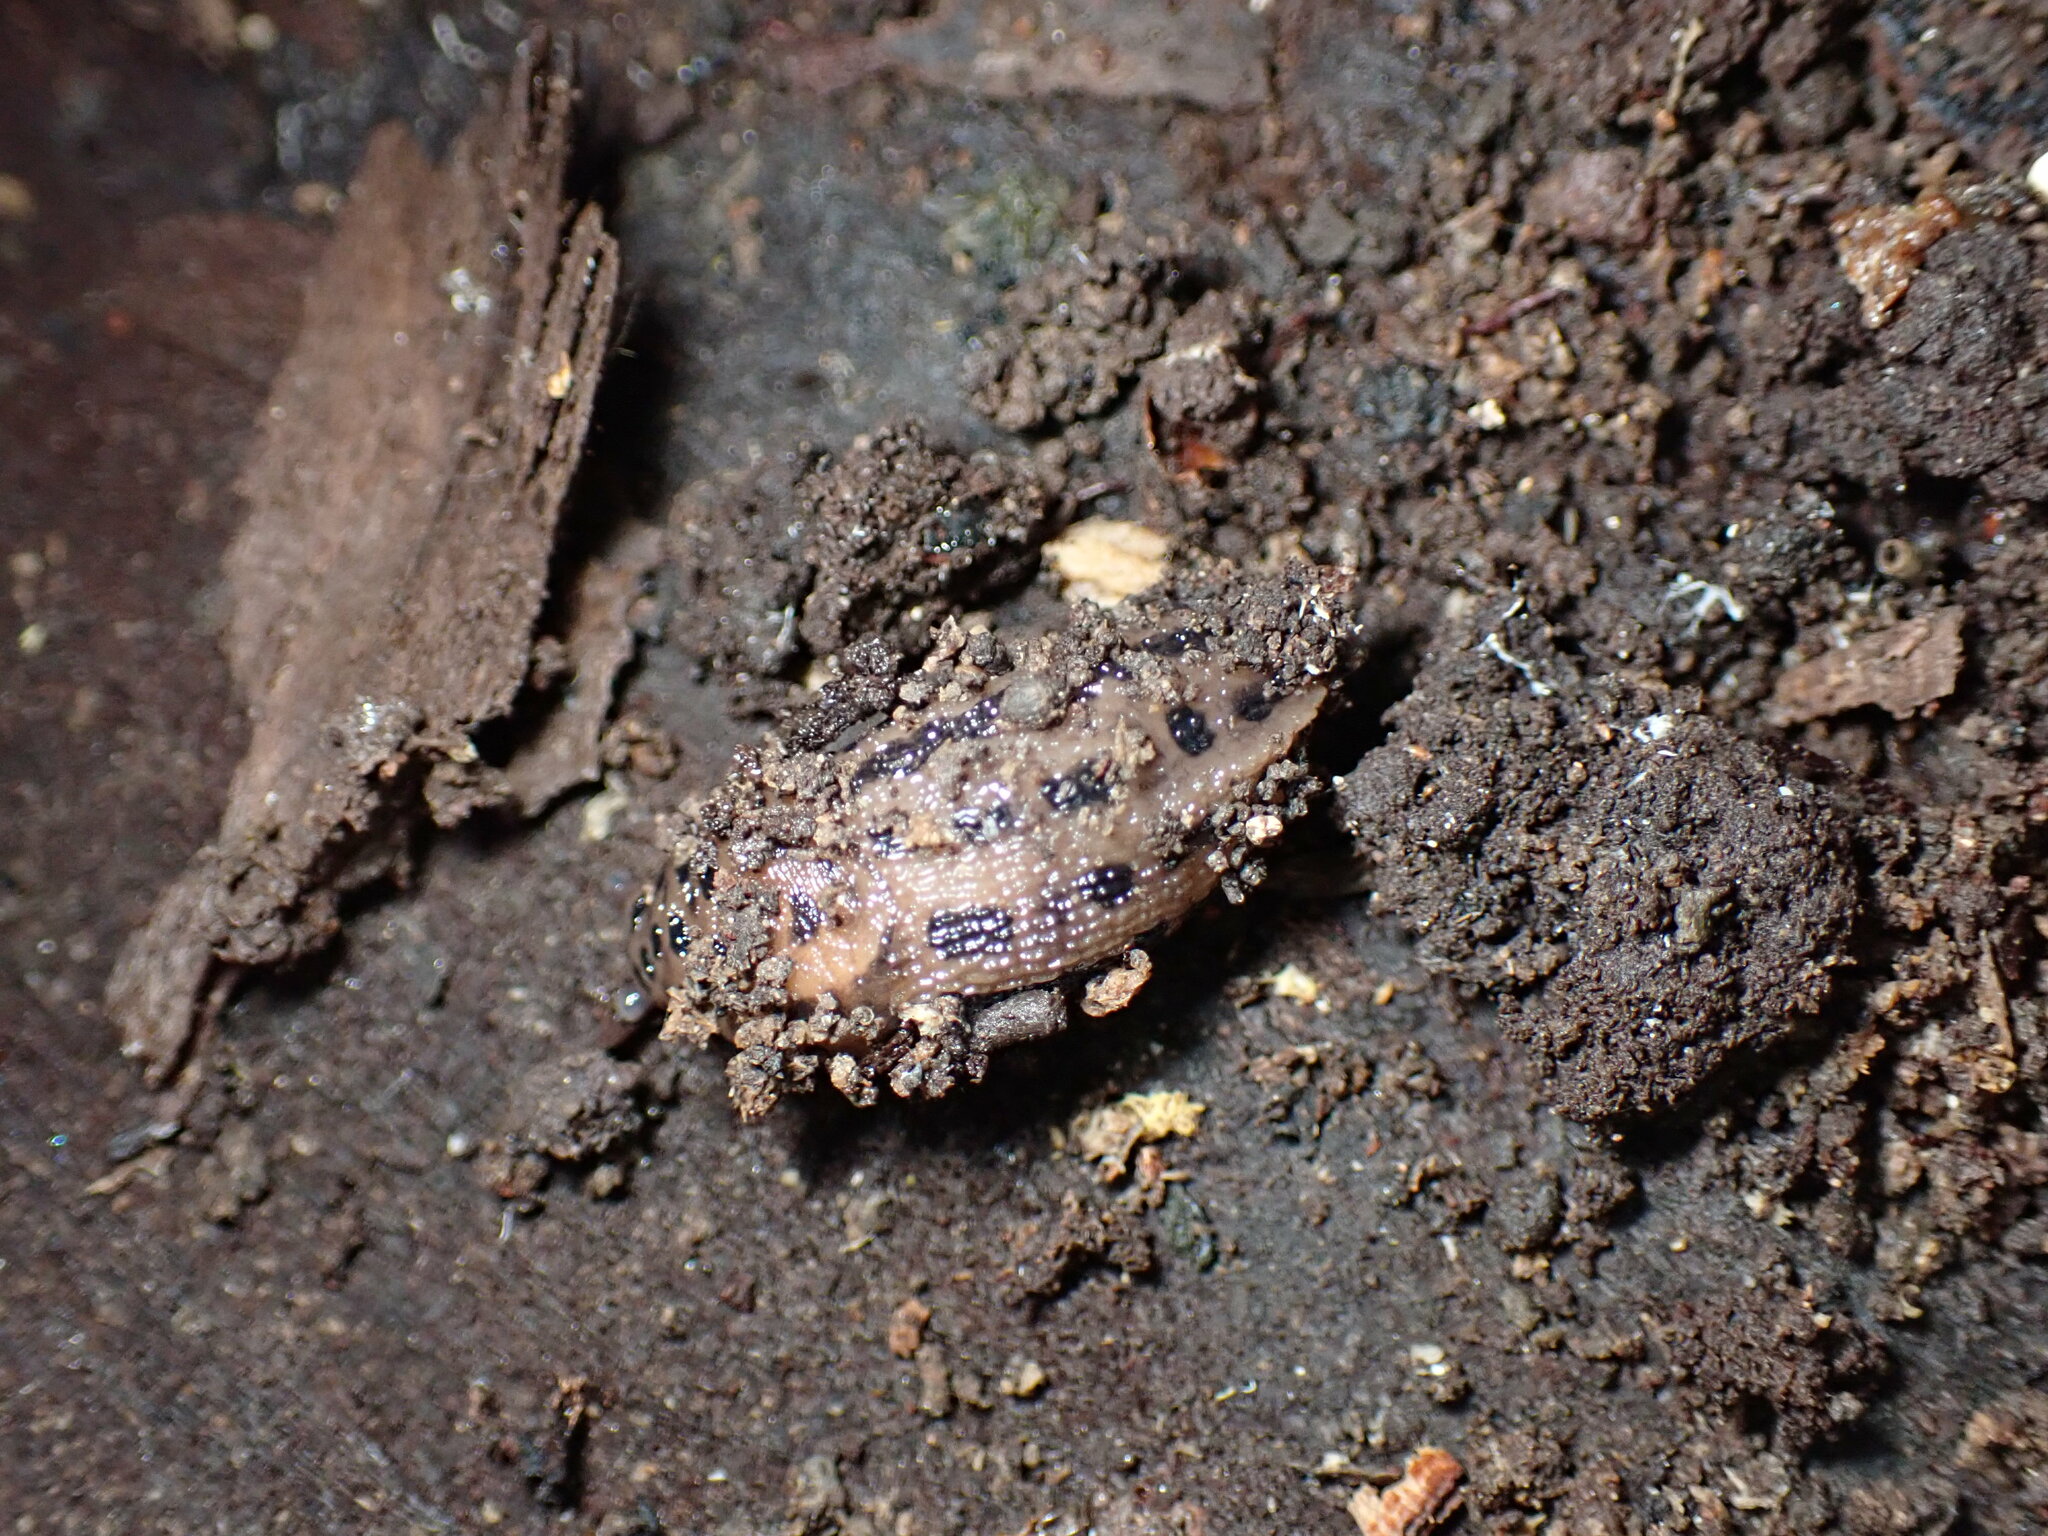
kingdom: Animalia
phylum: Mollusca
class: Gastropoda
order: Stylommatophora
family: Limacidae
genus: Limax
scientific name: Limax maximus
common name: Great grey slug
